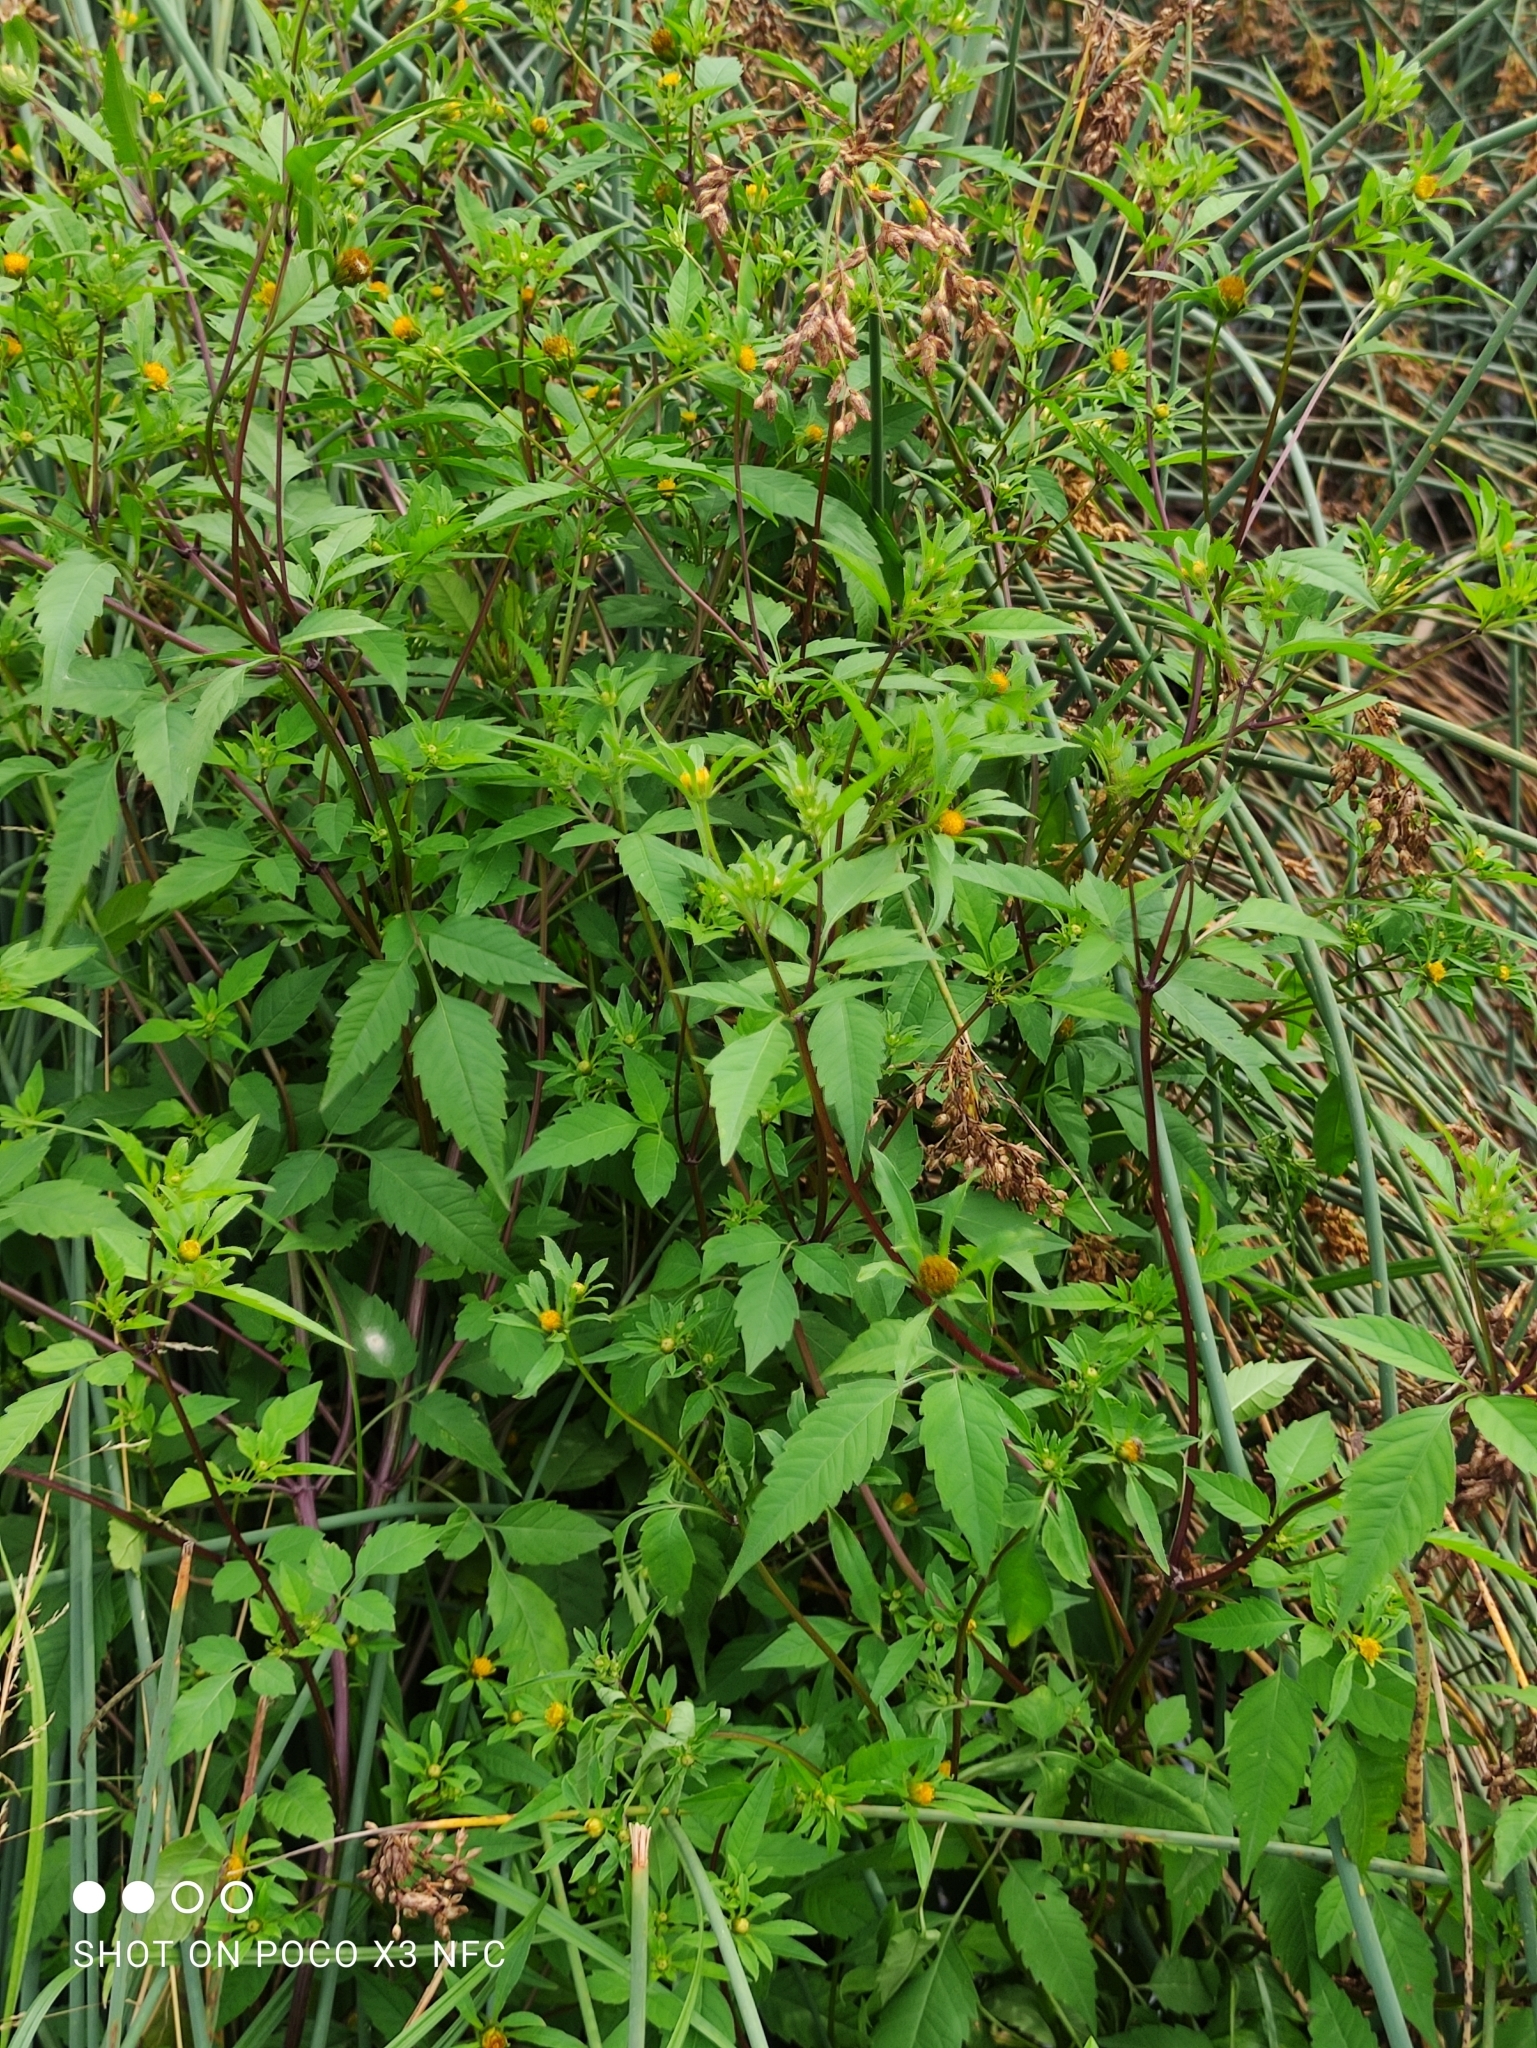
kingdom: Plantae
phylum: Tracheophyta
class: Magnoliopsida
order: Asterales
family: Asteraceae
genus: Bidens
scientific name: Bidens frondosa
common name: Beggarticks
